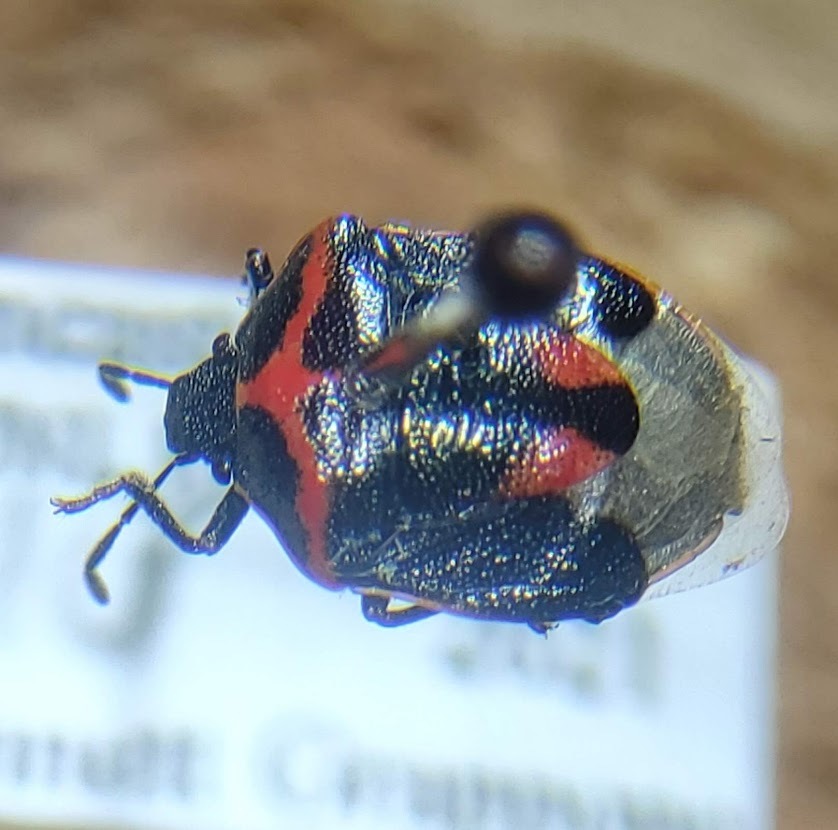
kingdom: Animalia
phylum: Arthropoda
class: Insecta
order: Hemiptera
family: Pentatomidae
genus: Cosmopepla
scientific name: Cosmopepla lintneriana
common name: Twice-stabbed stink bug
